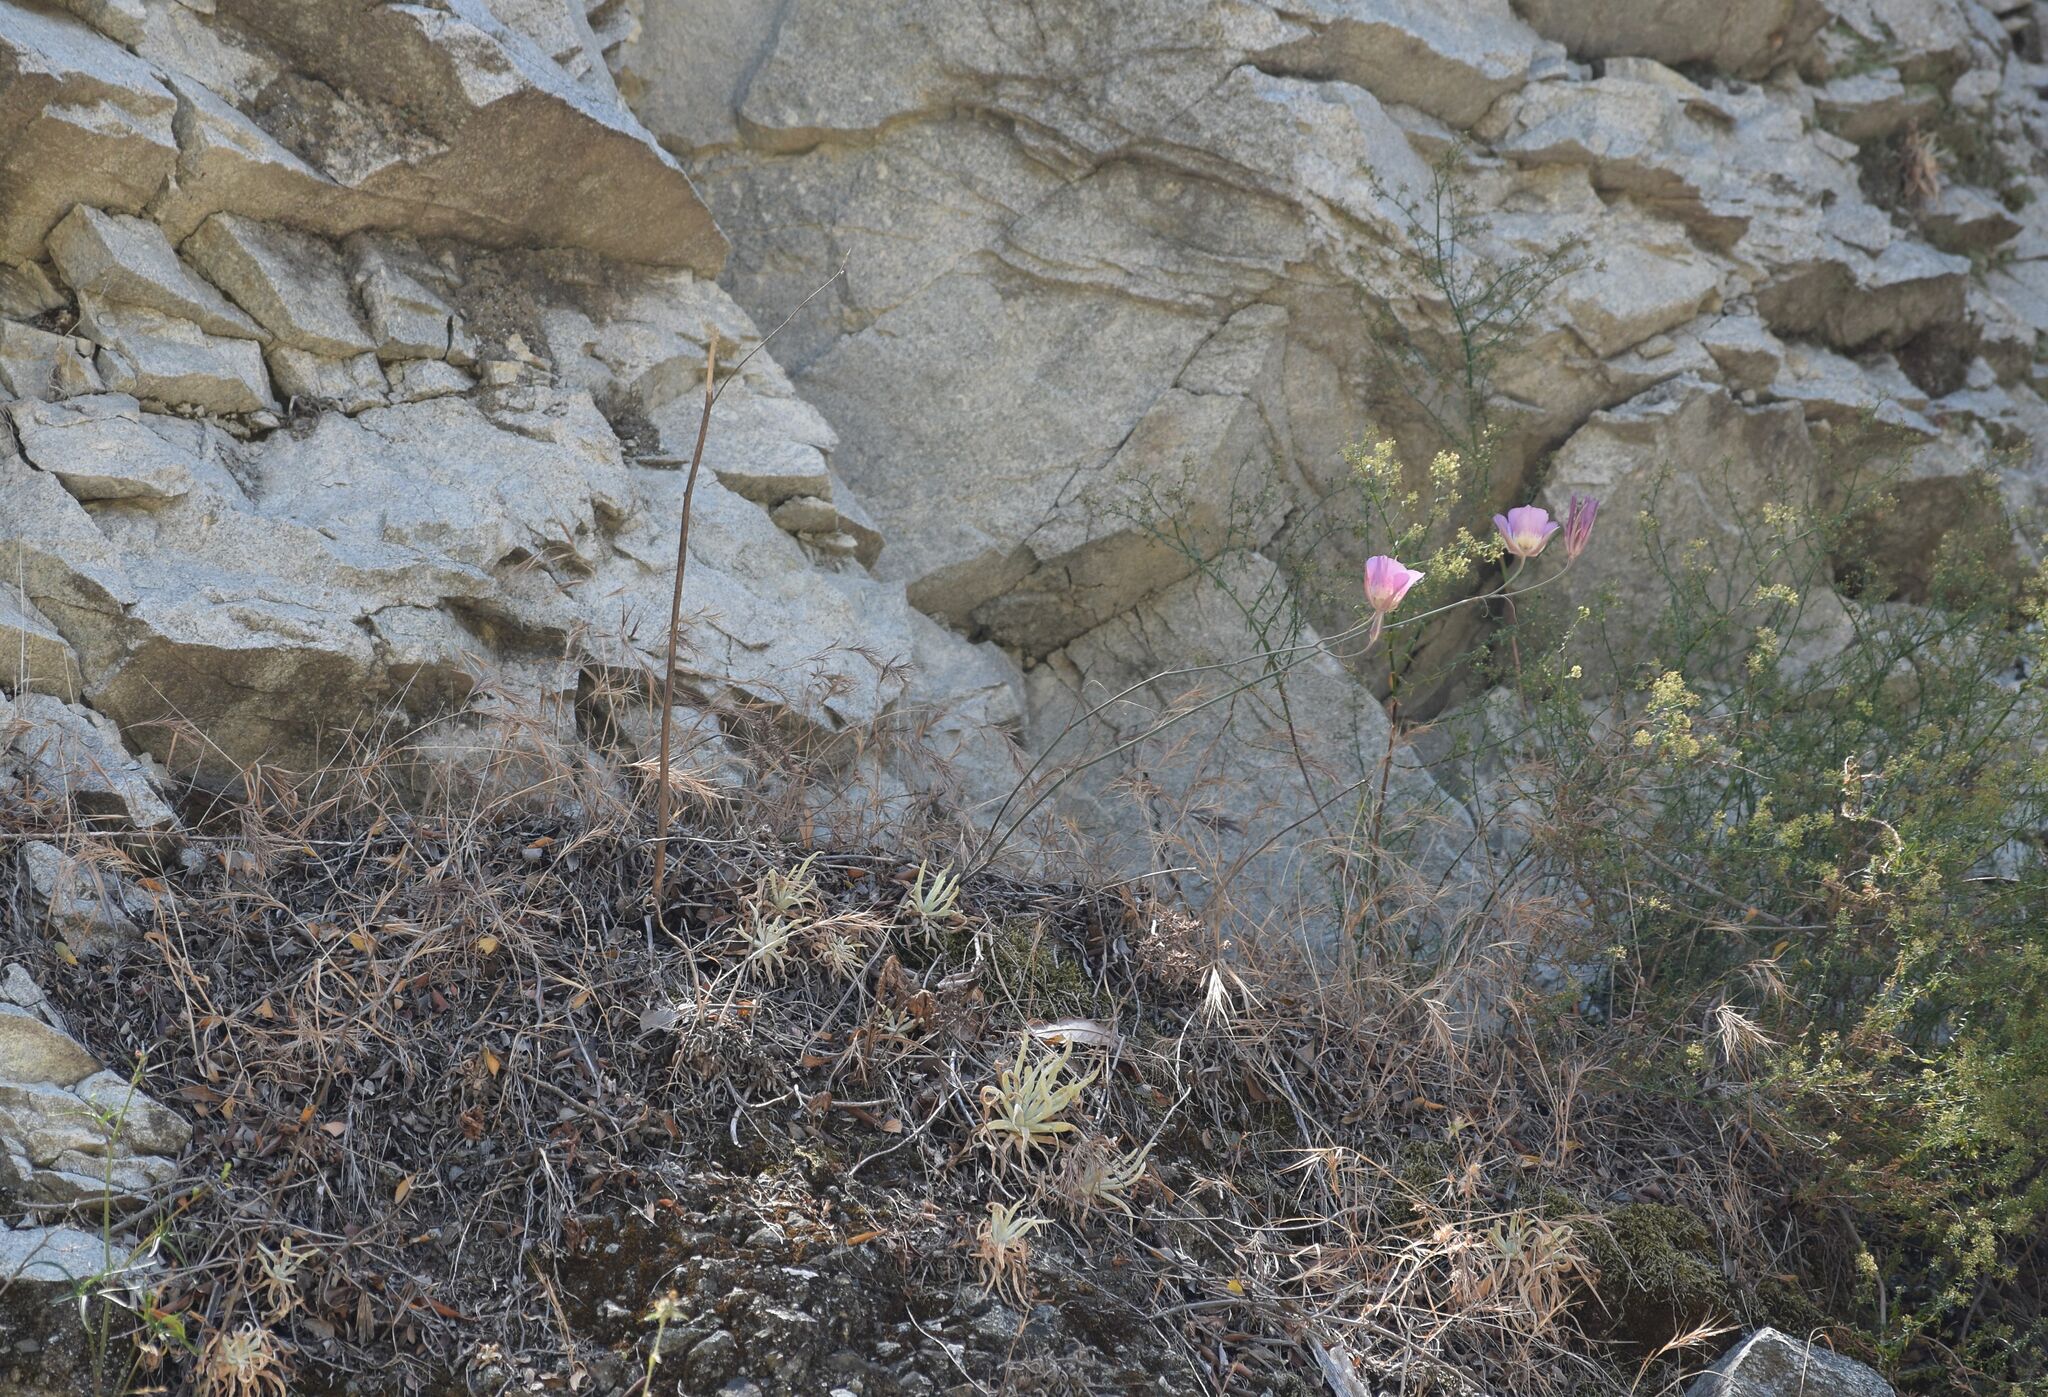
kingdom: Plantae
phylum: Tracheophyta
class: Liliopsida
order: Liliales
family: Liliaceae
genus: Calochortus
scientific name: Calochortus plummerae
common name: Plummer's mariposa-lily
